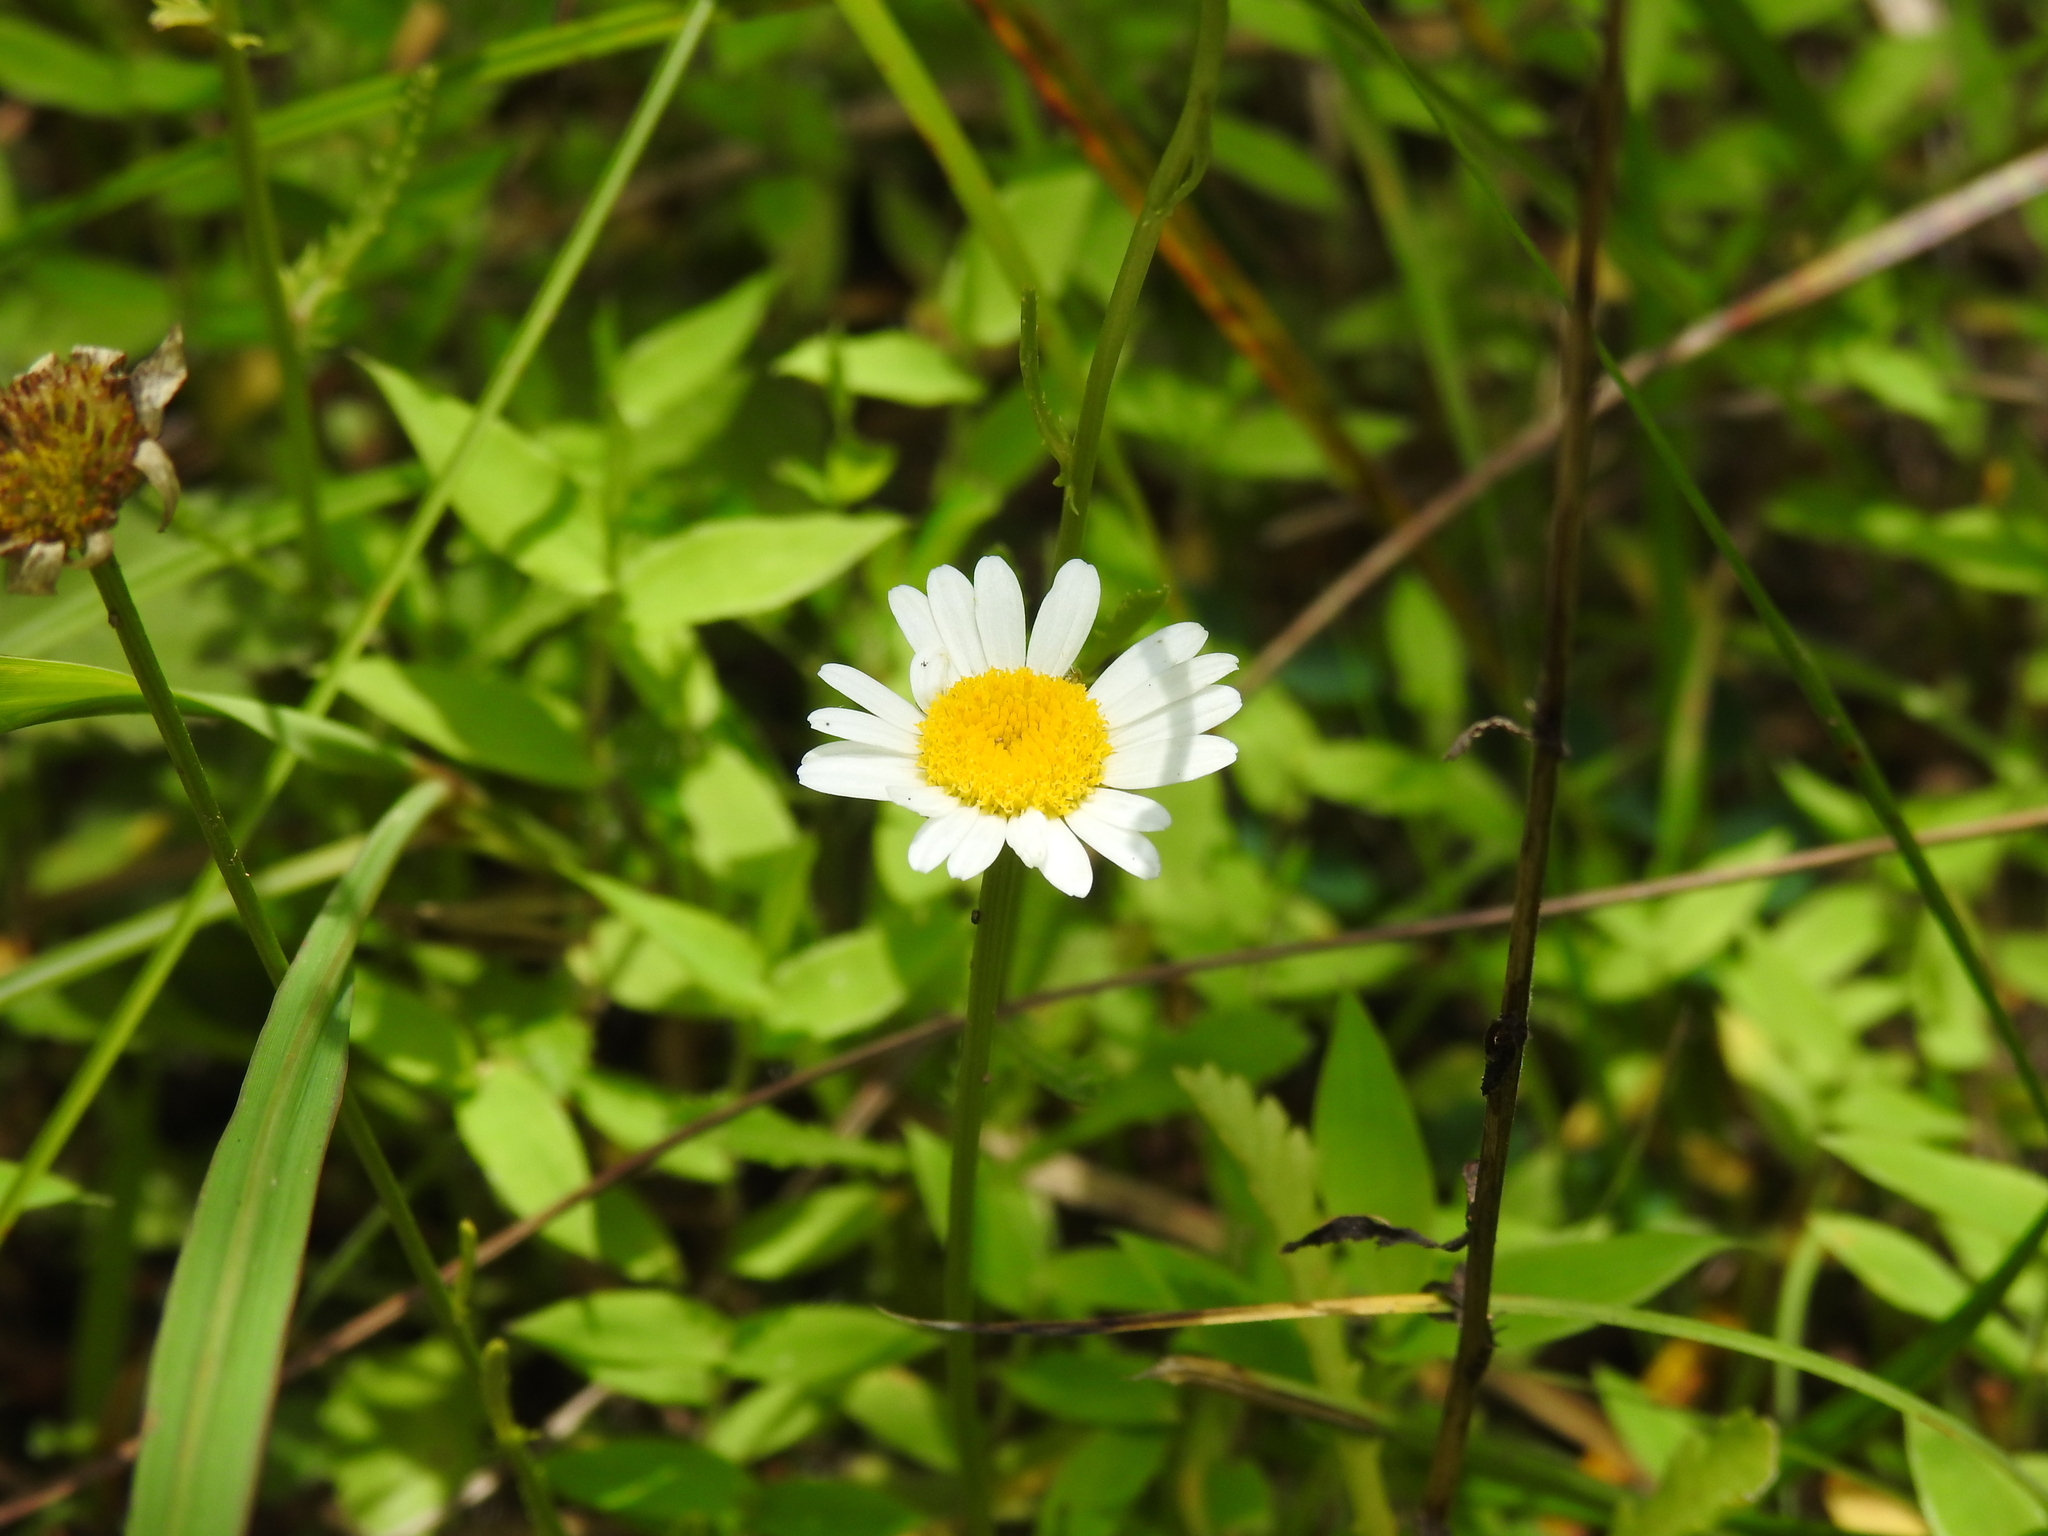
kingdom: Plantae
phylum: Tracheophyta
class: Magnoliopsida
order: Asterales
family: Asteraceae
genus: Leucanthemum
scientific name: Leucanthemum vulgare
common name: Oxeye daisy
